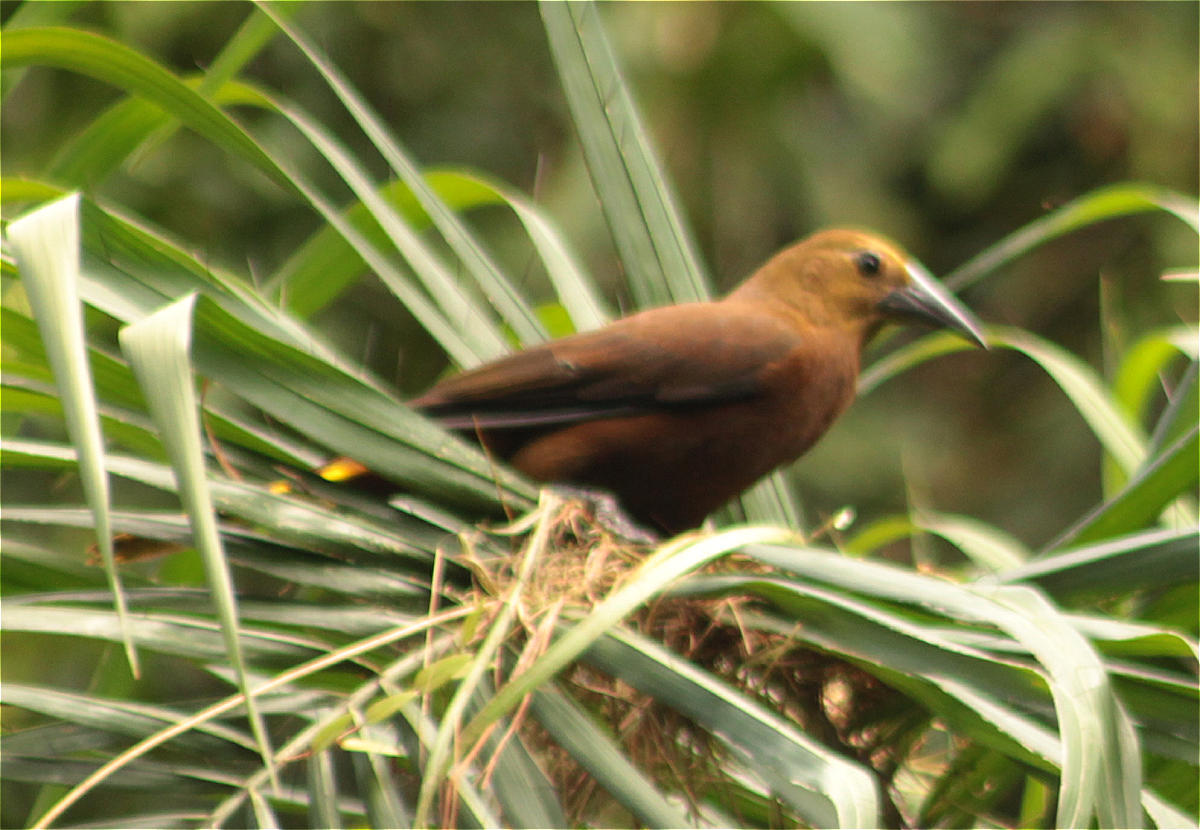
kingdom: Animalia
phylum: Chordata
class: Aves
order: Passeriformes
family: Icteridae
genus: Psarocolius
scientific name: Psarocolius angustifrons
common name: Russet-backed oropendola
